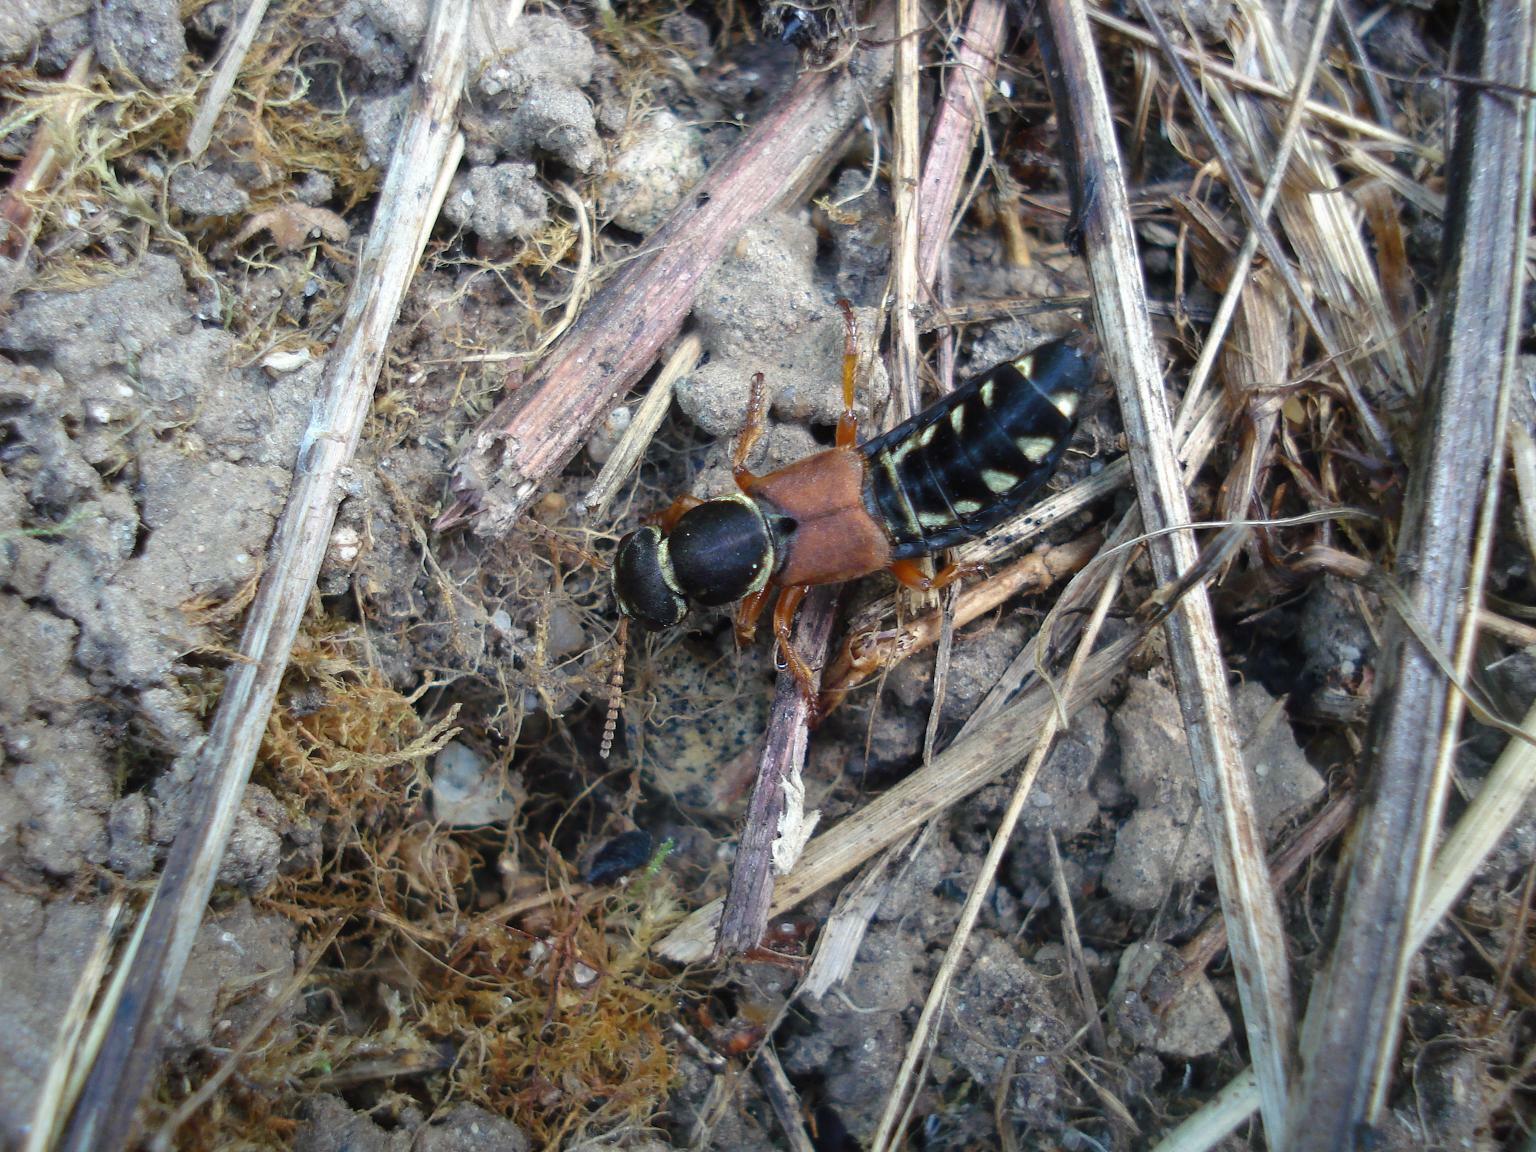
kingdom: Animalia
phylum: Arthropoda
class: Insecta
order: Coleoptera
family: Staphylinidae
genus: Staphylinus
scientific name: Staphylinus caesareus
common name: Staph beetle
